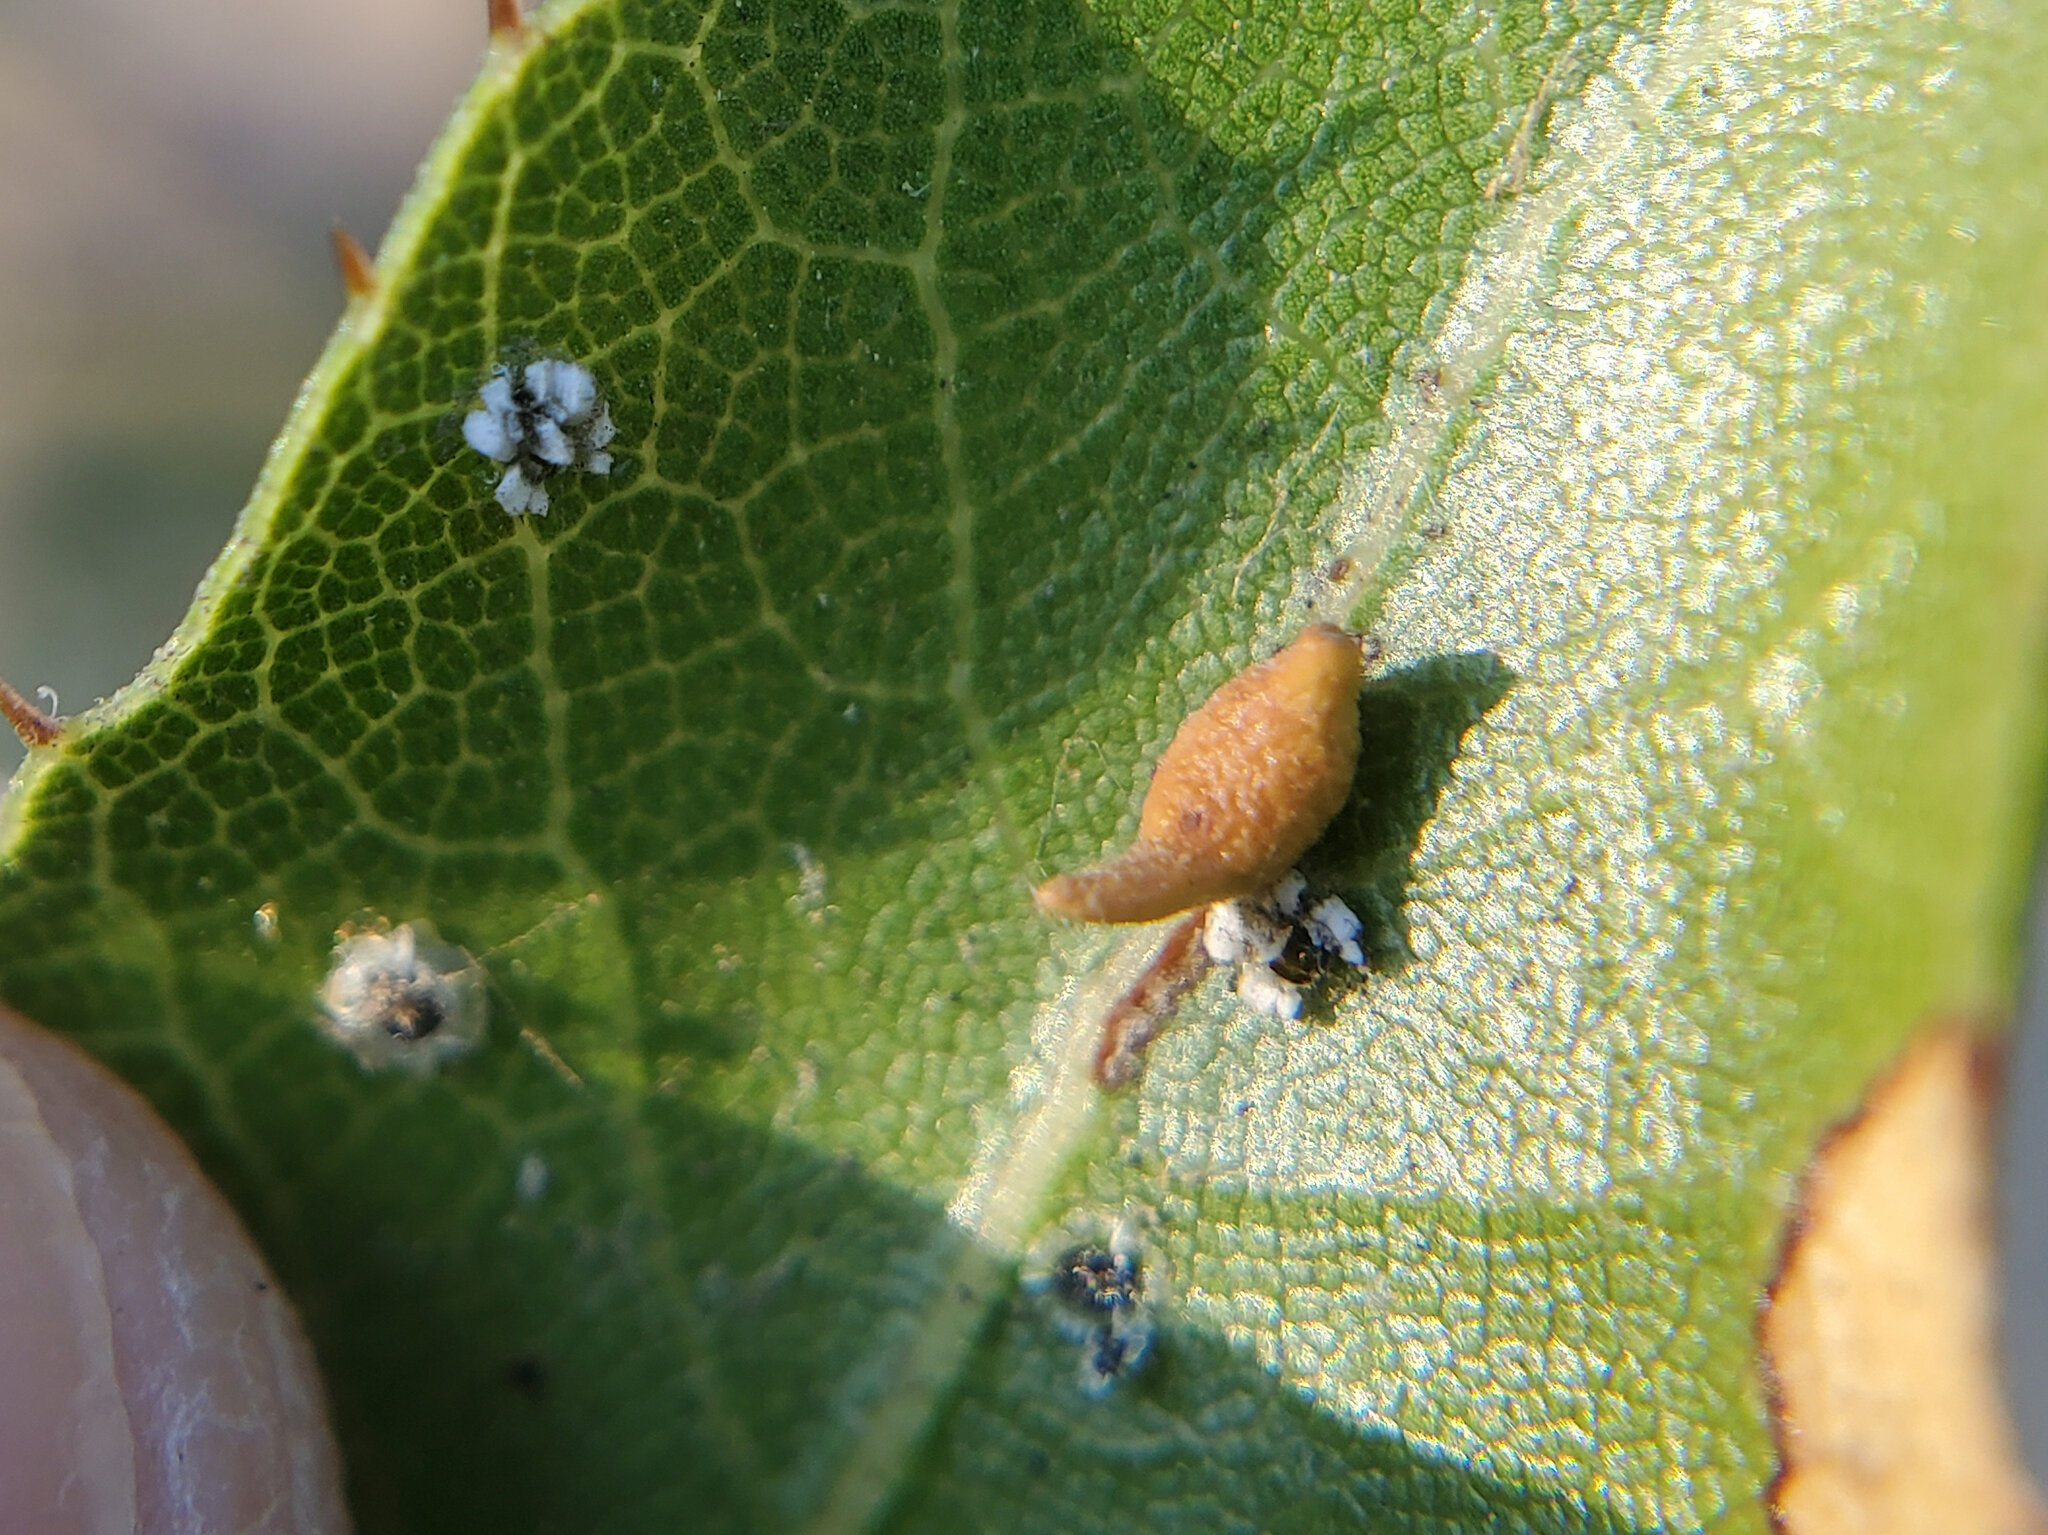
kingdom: Animalia
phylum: Arthropoda
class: Insecta
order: Hymenoptera
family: Cynipidae
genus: Dryocosmus
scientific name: Dryocosmus
